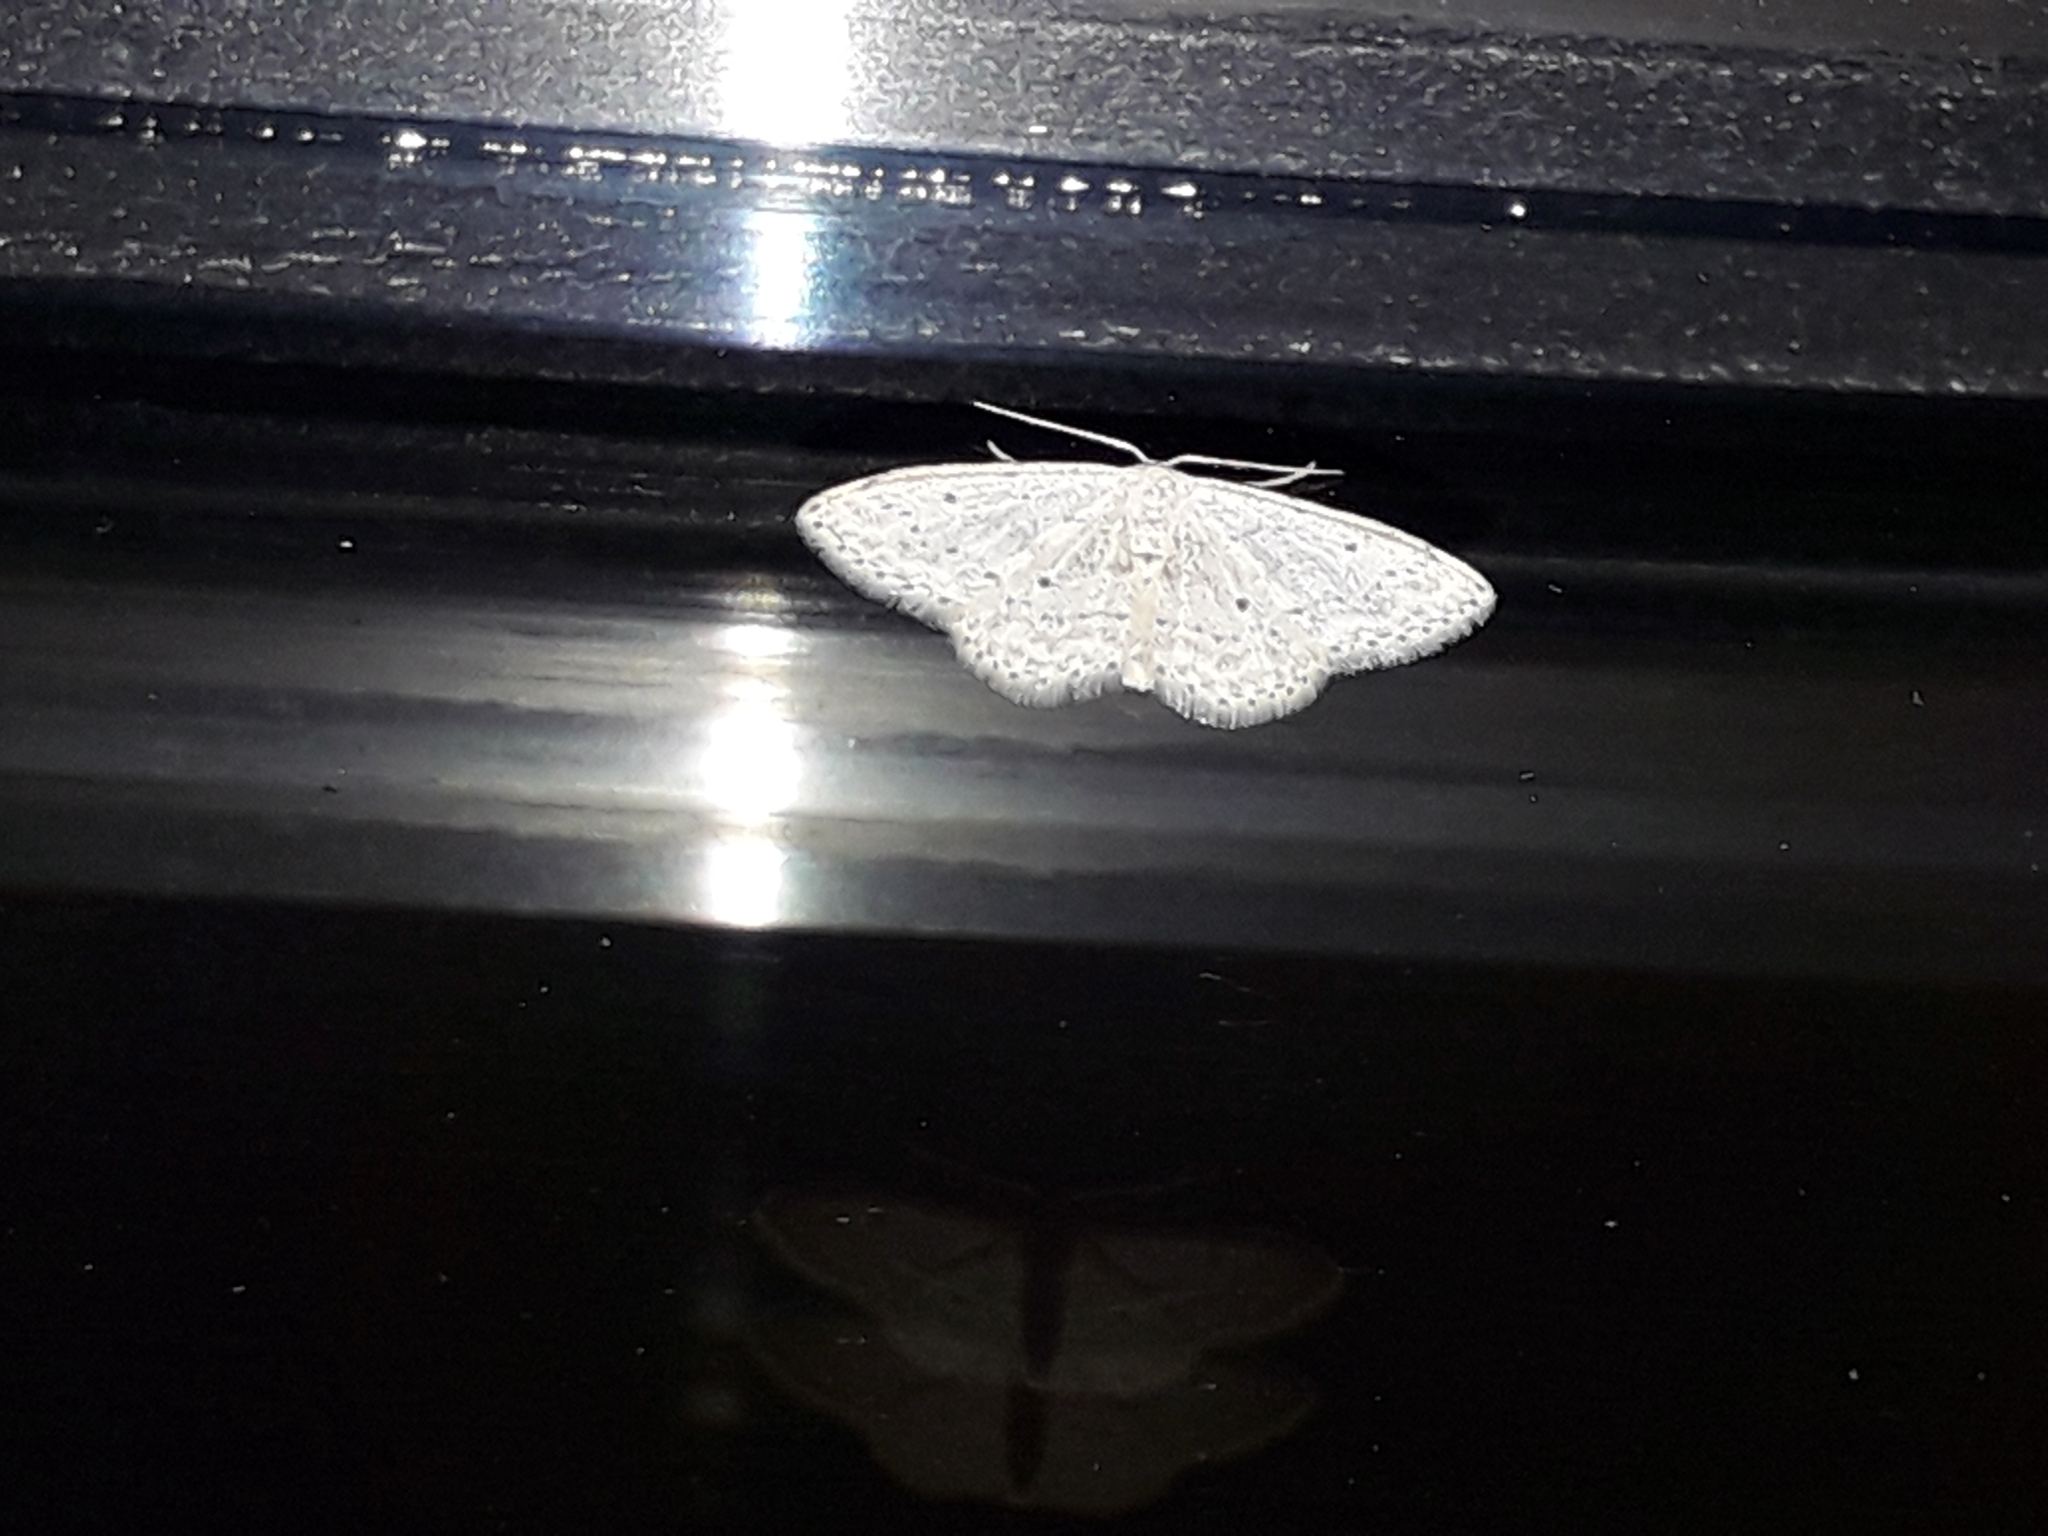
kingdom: Animalia
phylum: Arthropoda
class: Insecta
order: Lepidoptera
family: Geometridae
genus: Idaea
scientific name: Idaea seriata
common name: Small dusty wave
